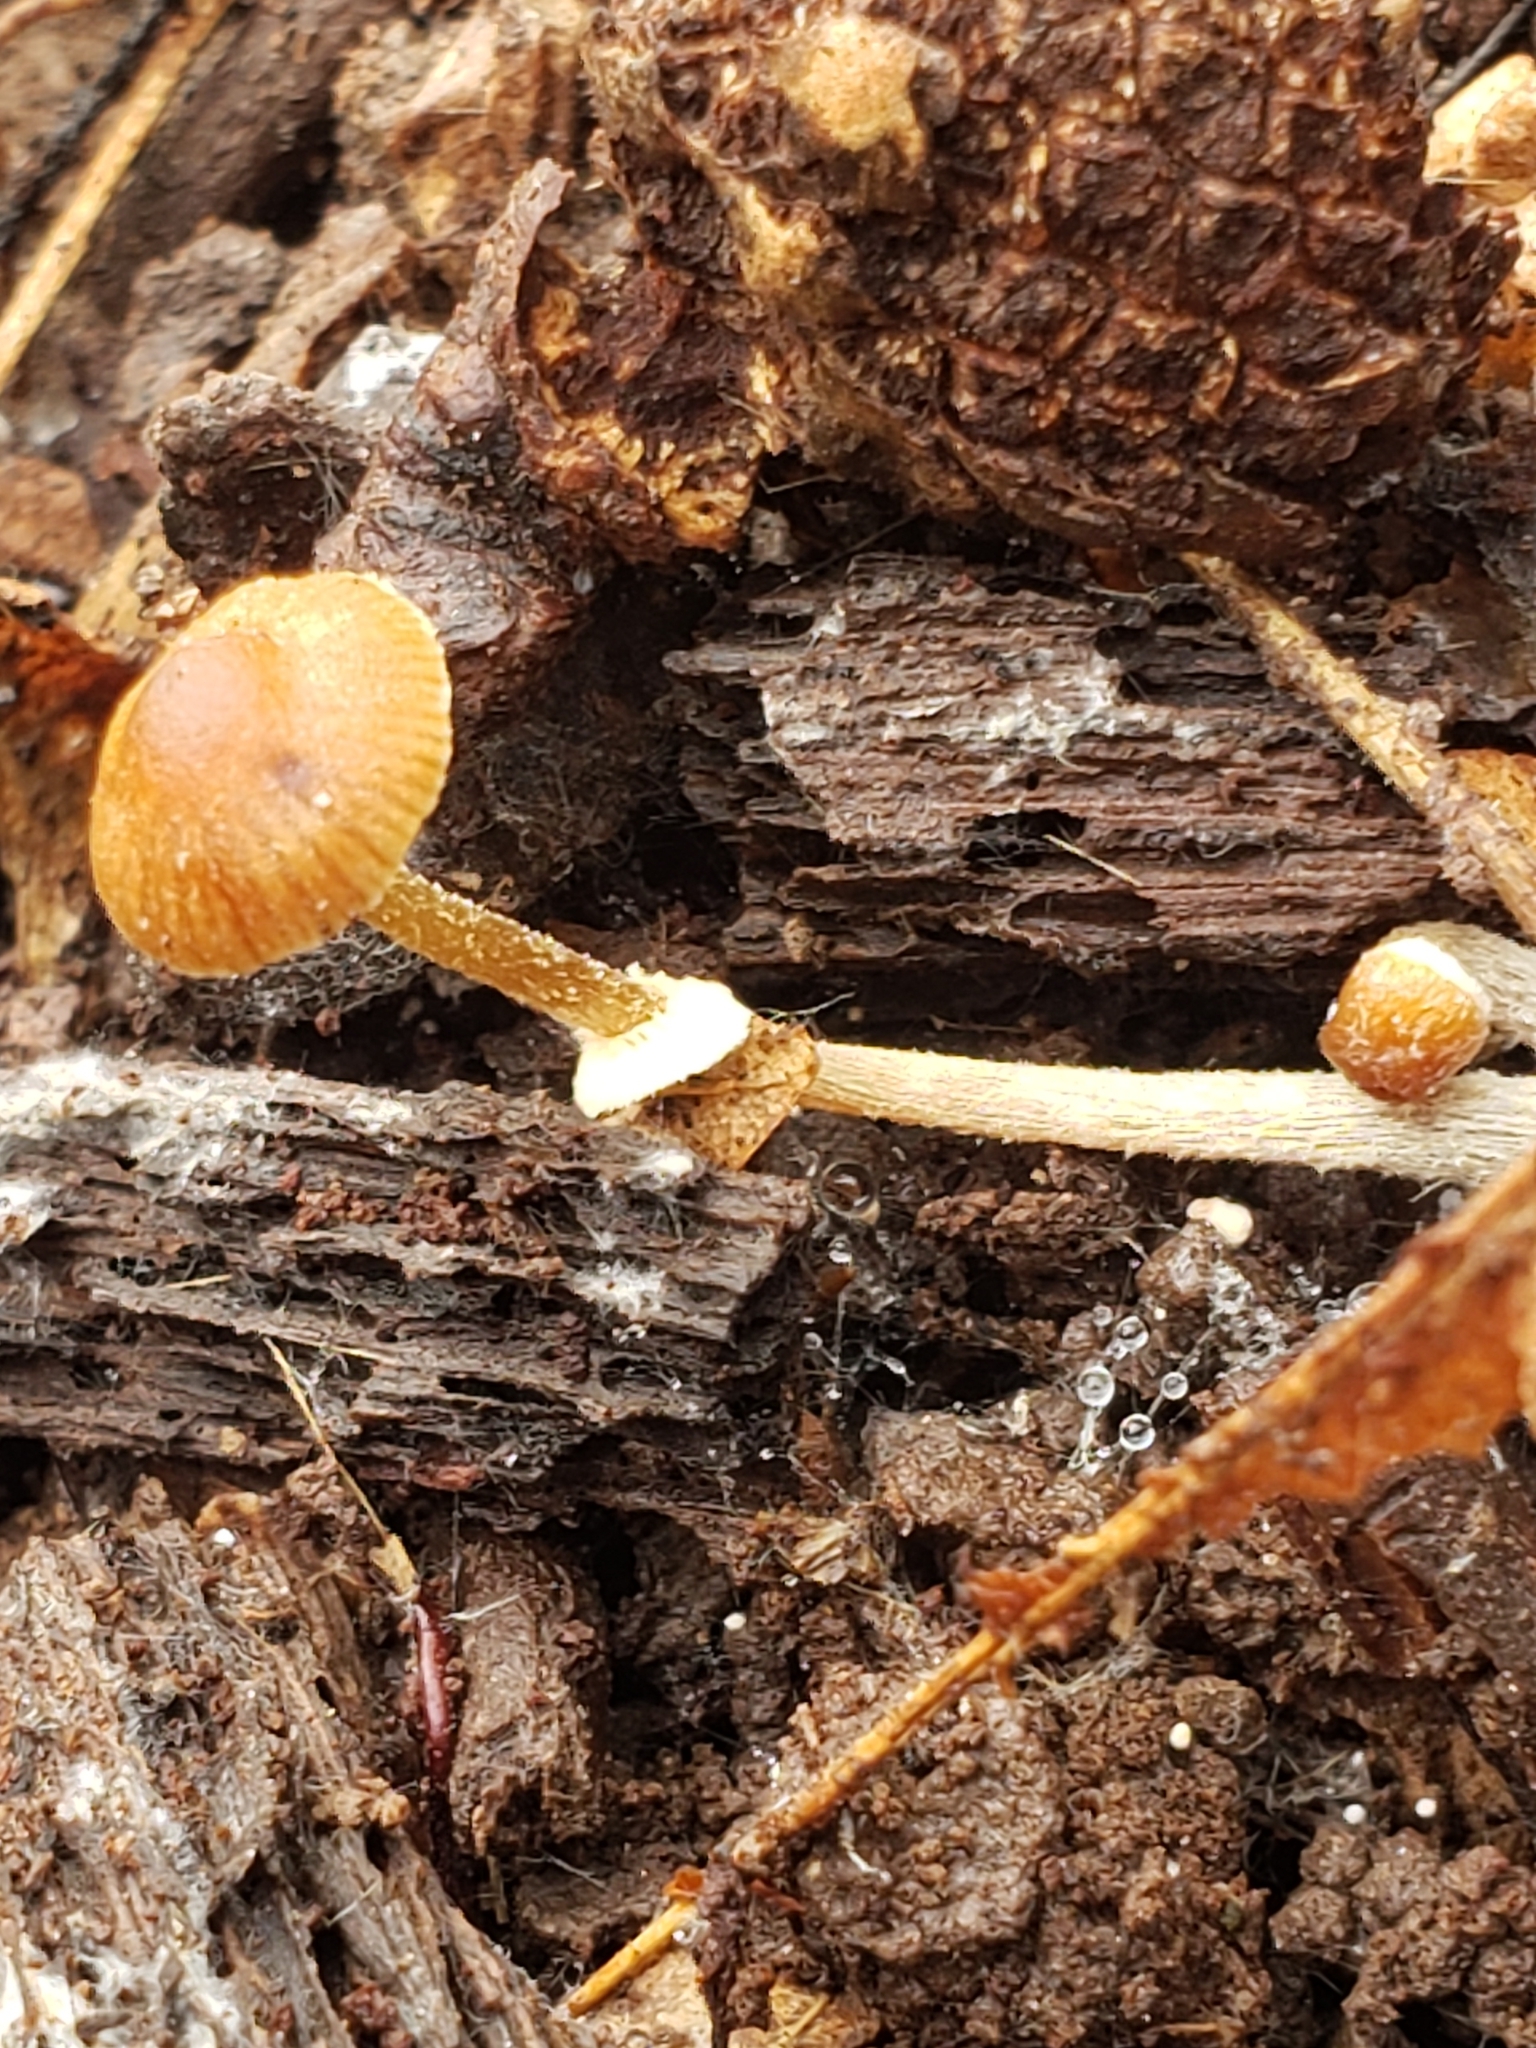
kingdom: Fungi
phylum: Basidiomycota
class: Agaricomycetes
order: Agaricales
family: Bolbitiaceae
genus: Conocybe
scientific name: Conocybe rugosa
